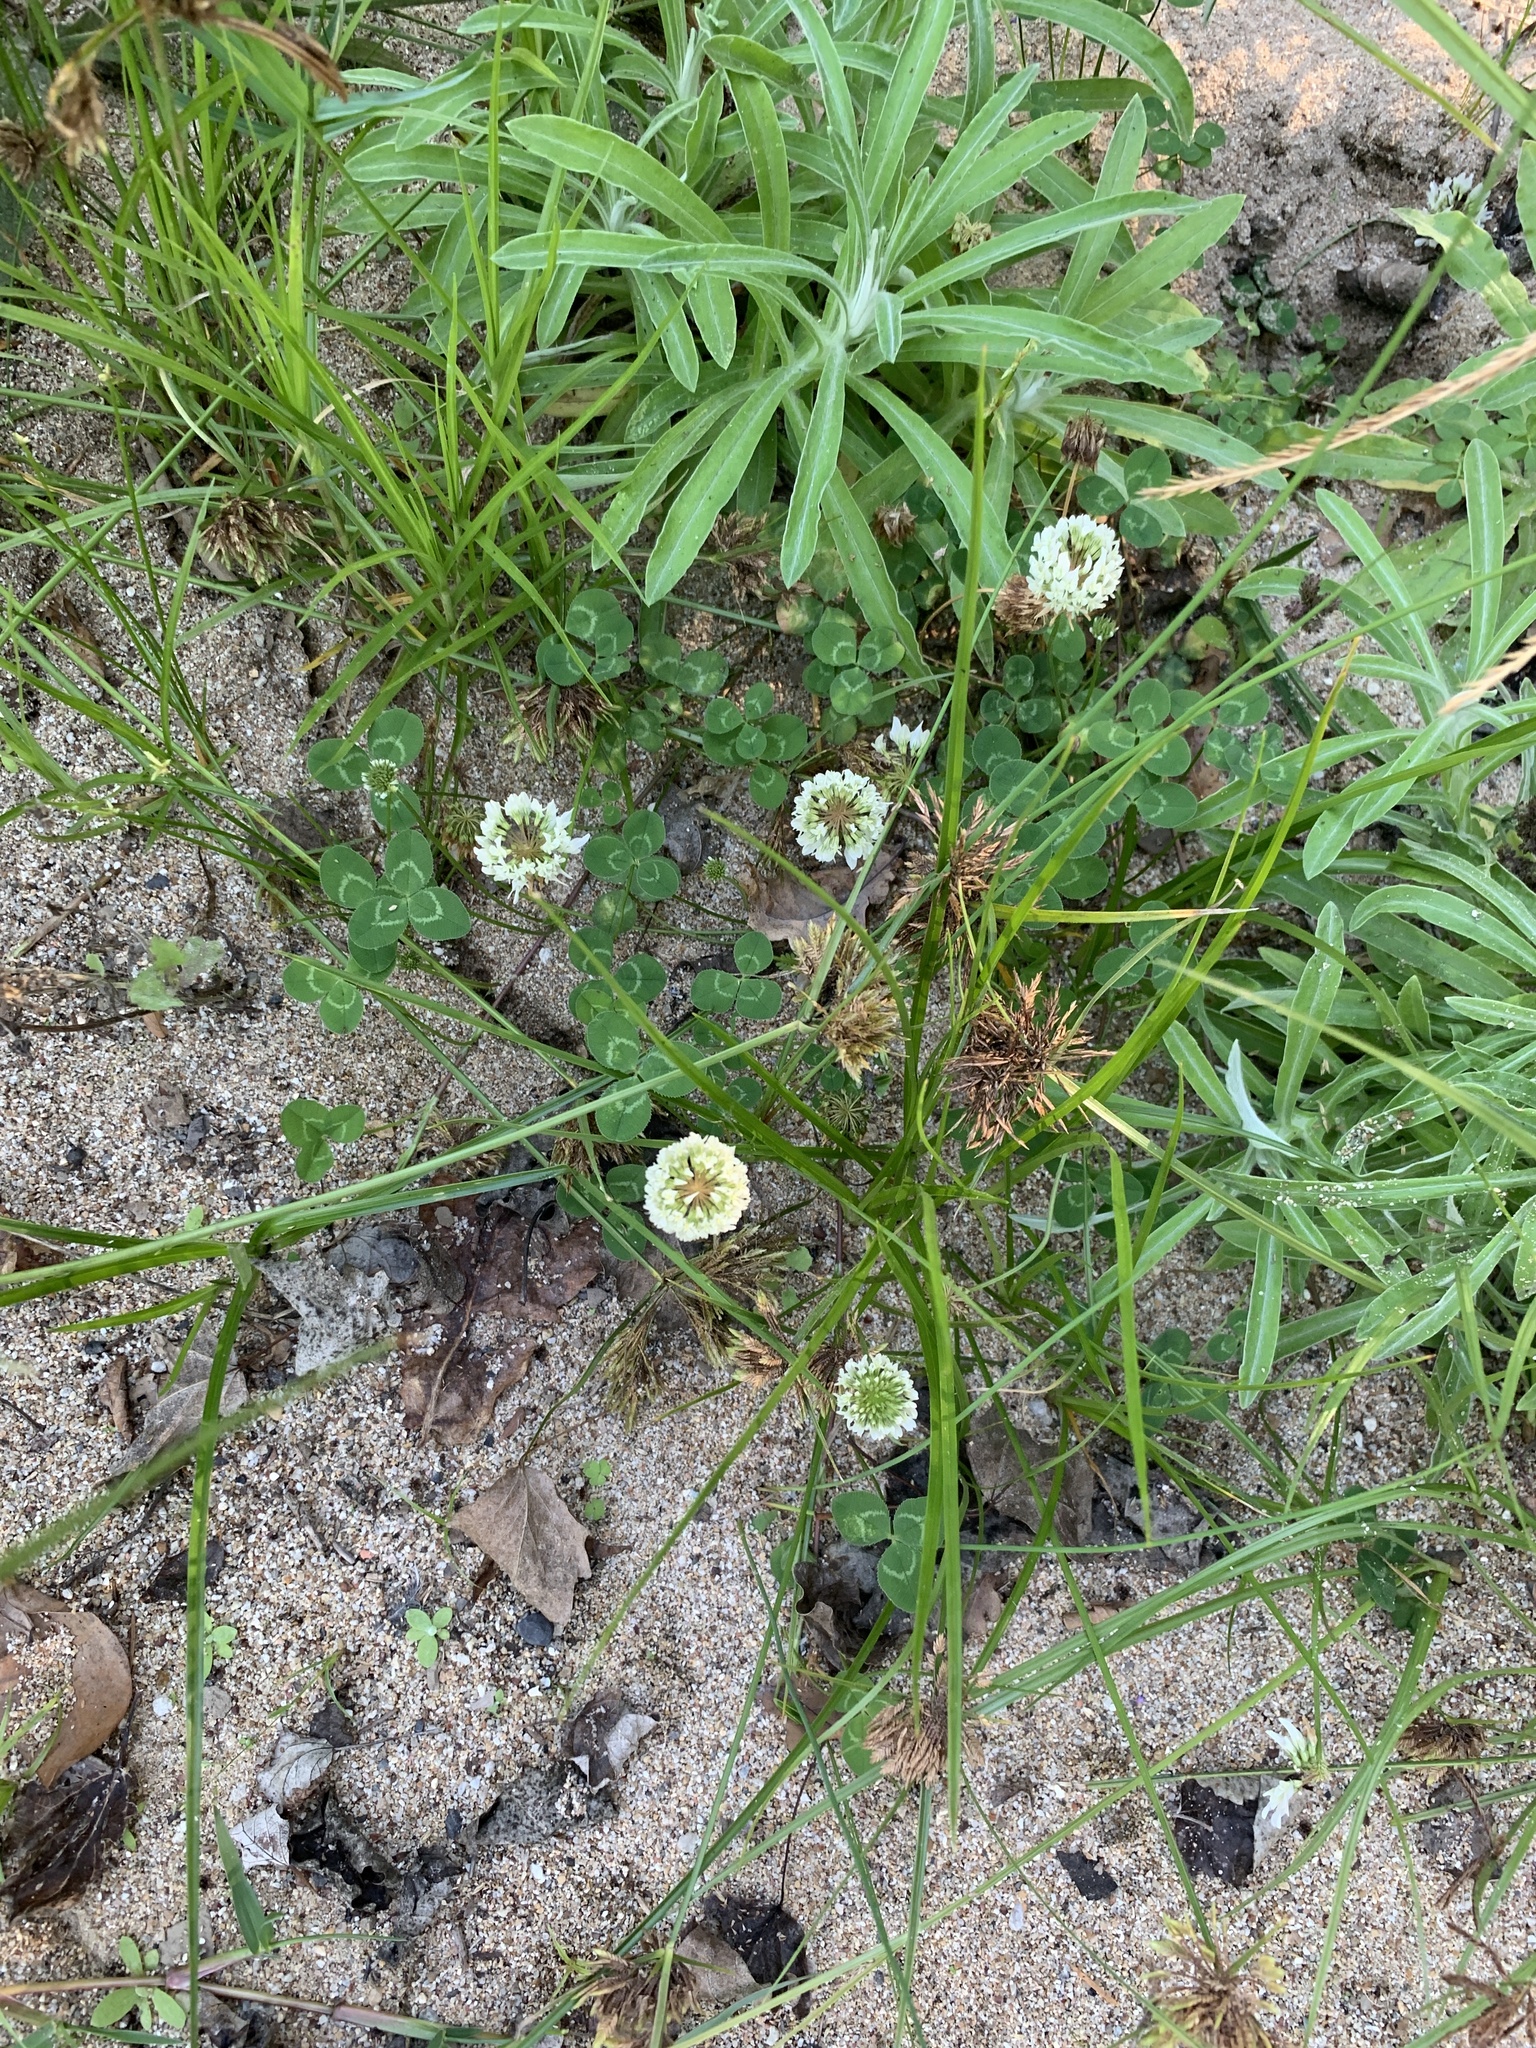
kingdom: Plantae
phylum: Tracheophyta
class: Magnoliopsida
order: Fabales
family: Fabaceae
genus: Trifolium
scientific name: Trifolium repens
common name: White clover
